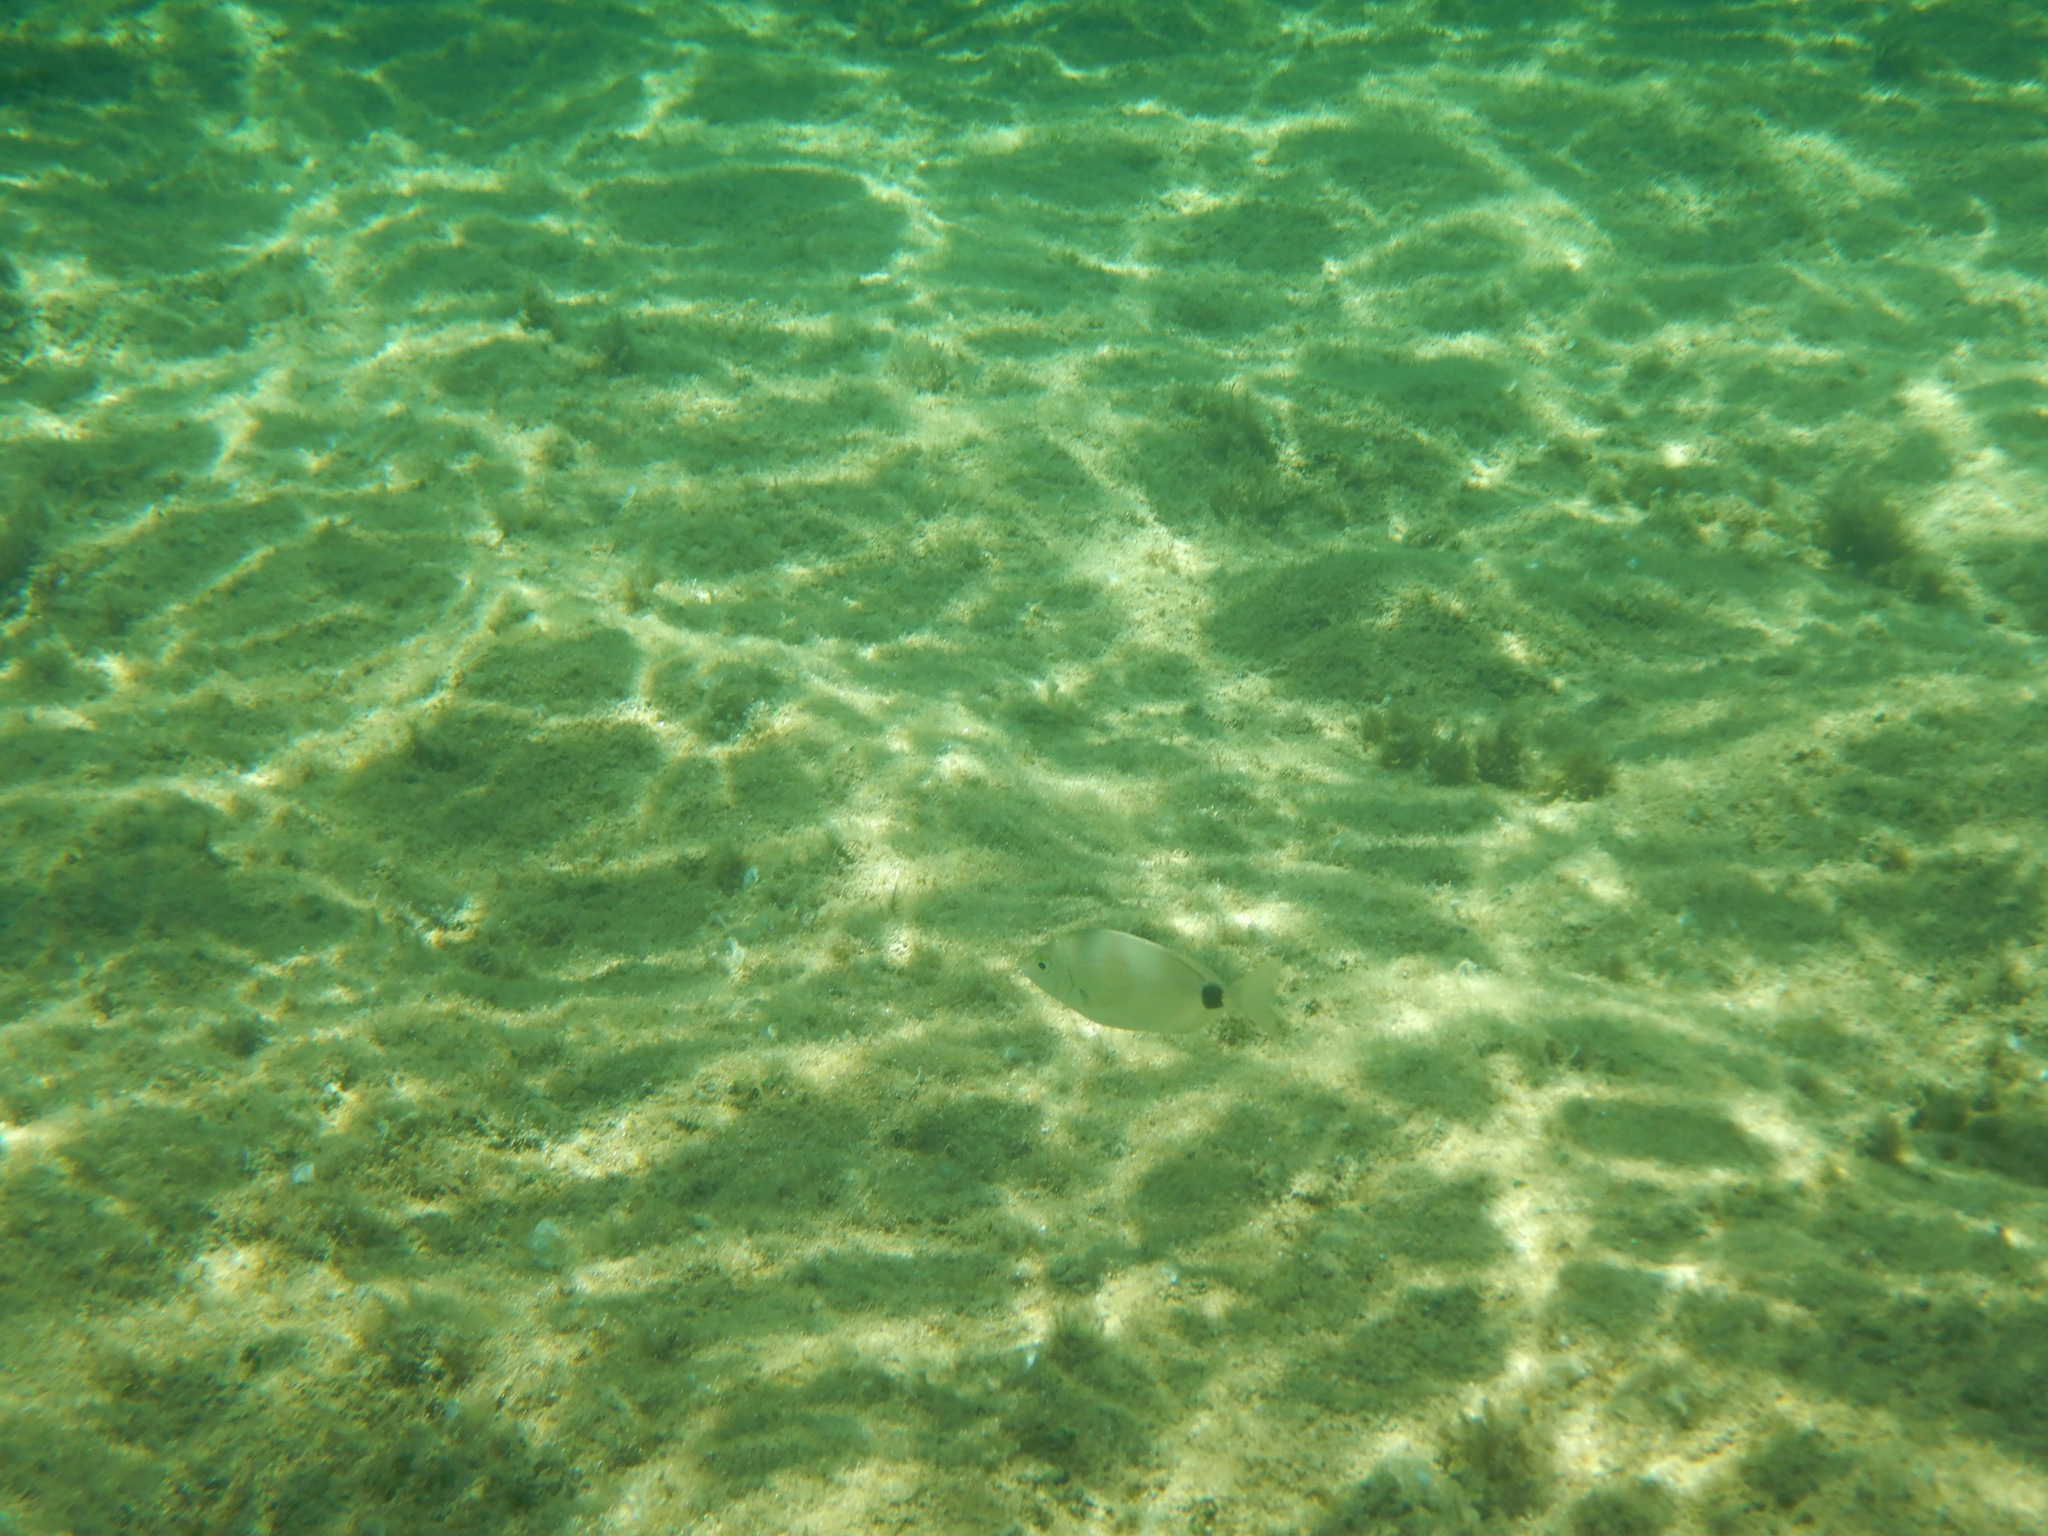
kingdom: Animalia
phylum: Chordata
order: Perciformes
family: Sparidae
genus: Diplodus
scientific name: Diplodus annularis
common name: Annular seabream
